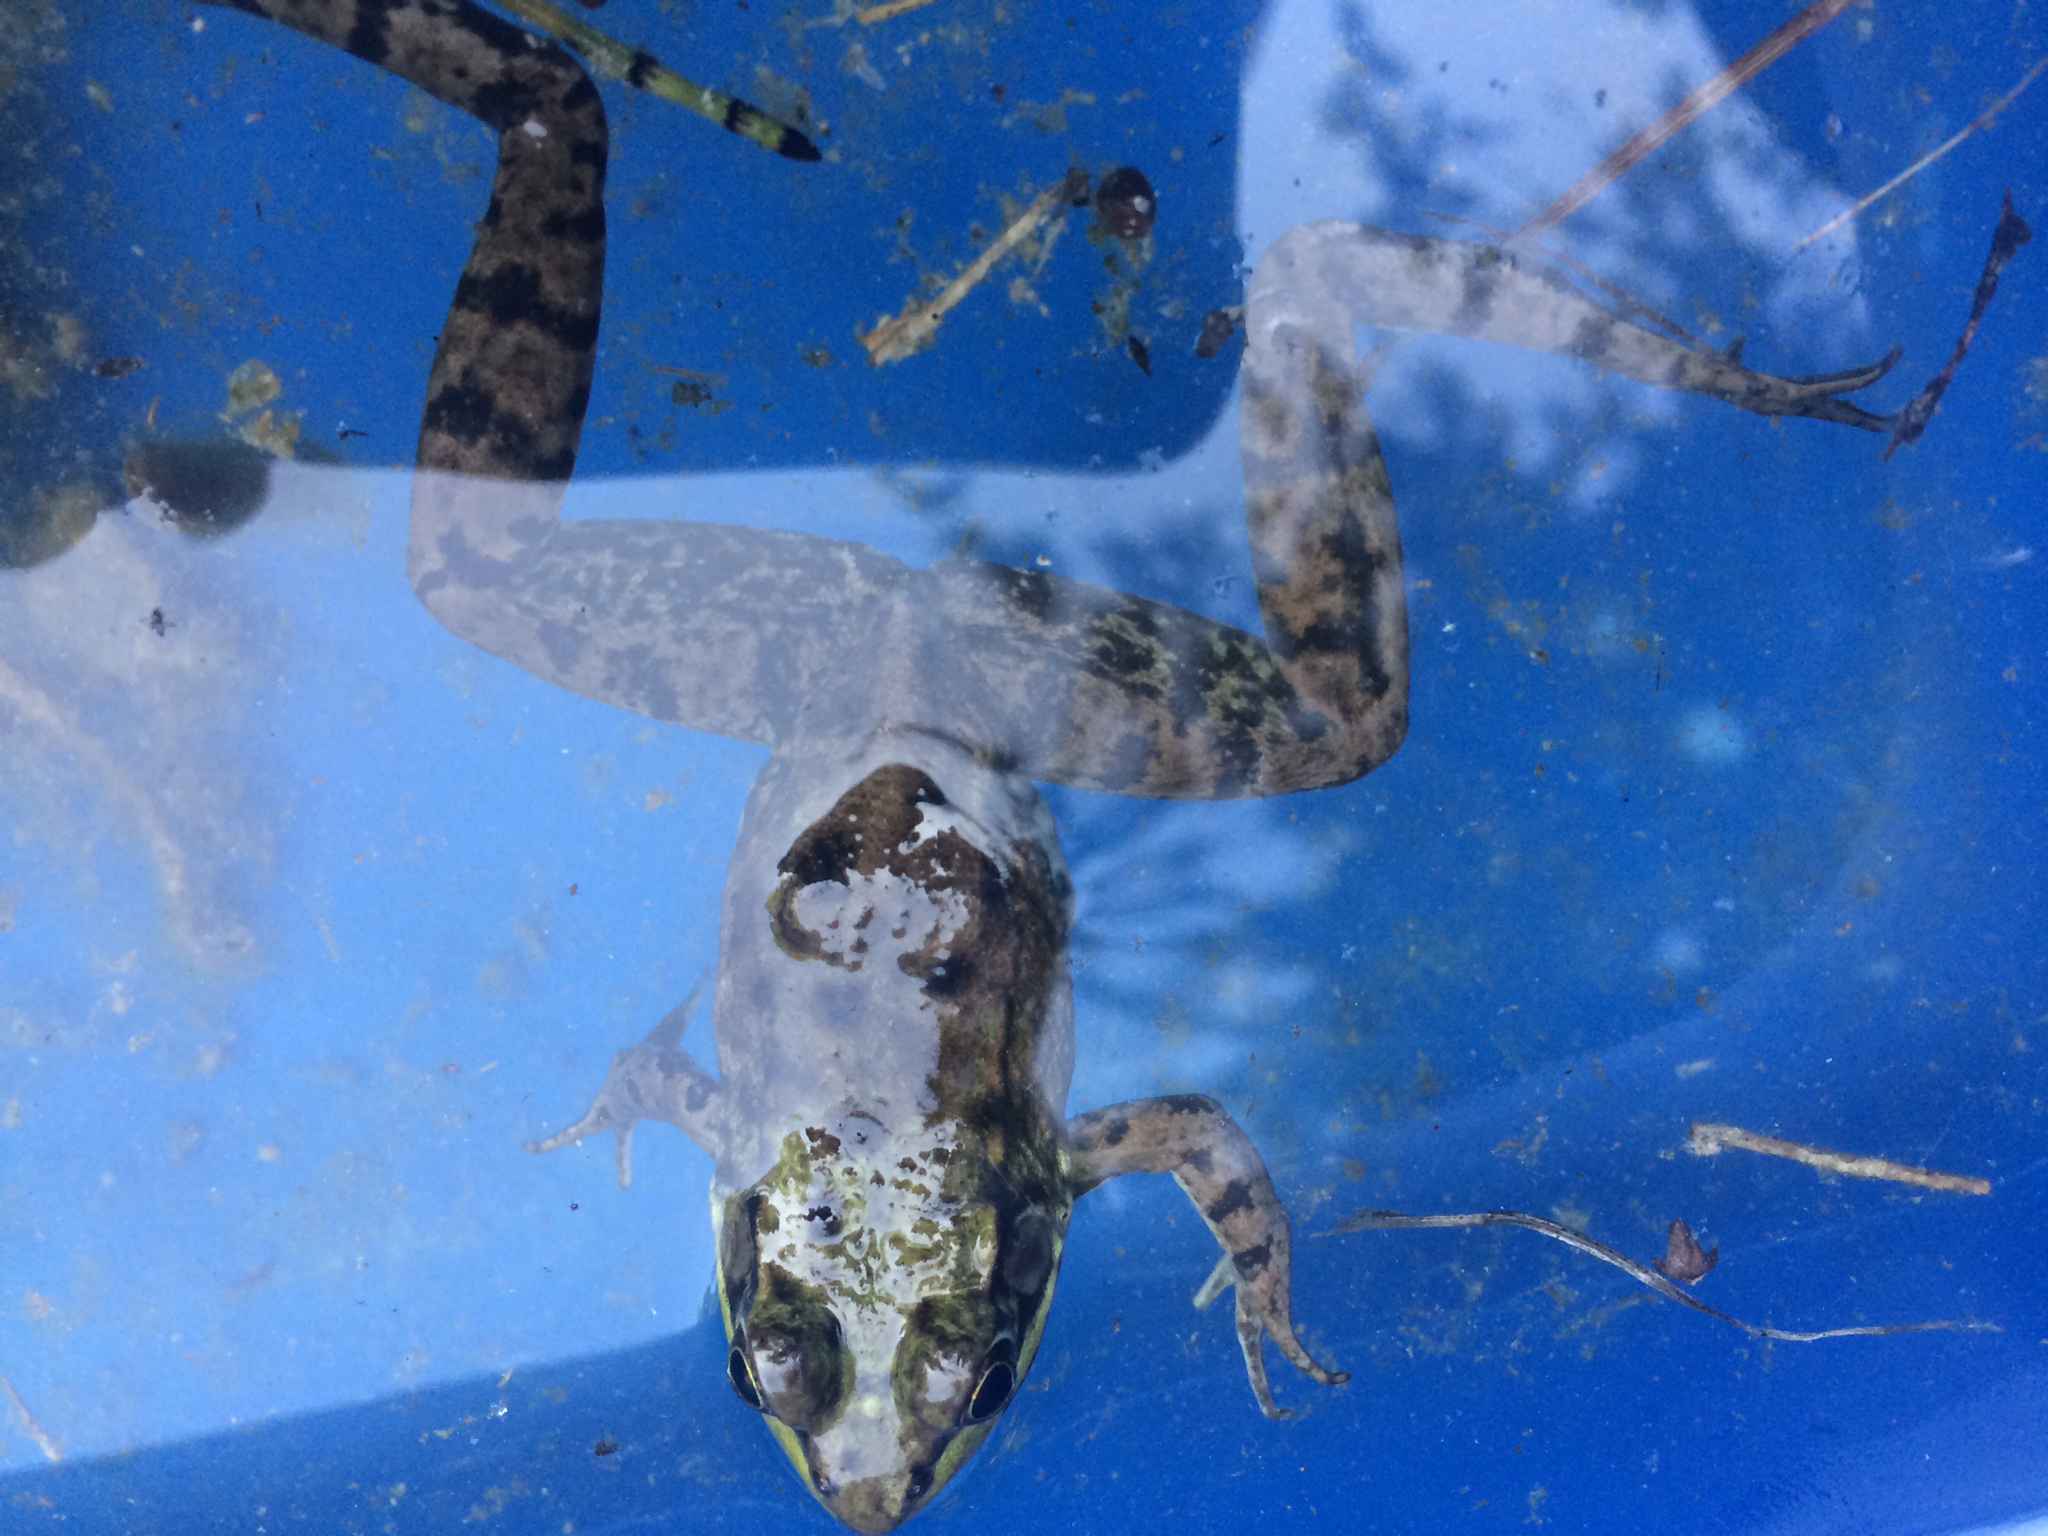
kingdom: Animalia
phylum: Chordata
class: Amphibia
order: Anura
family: Ranidae
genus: Lithobates
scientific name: Lithobates clamitans
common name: Green frog
